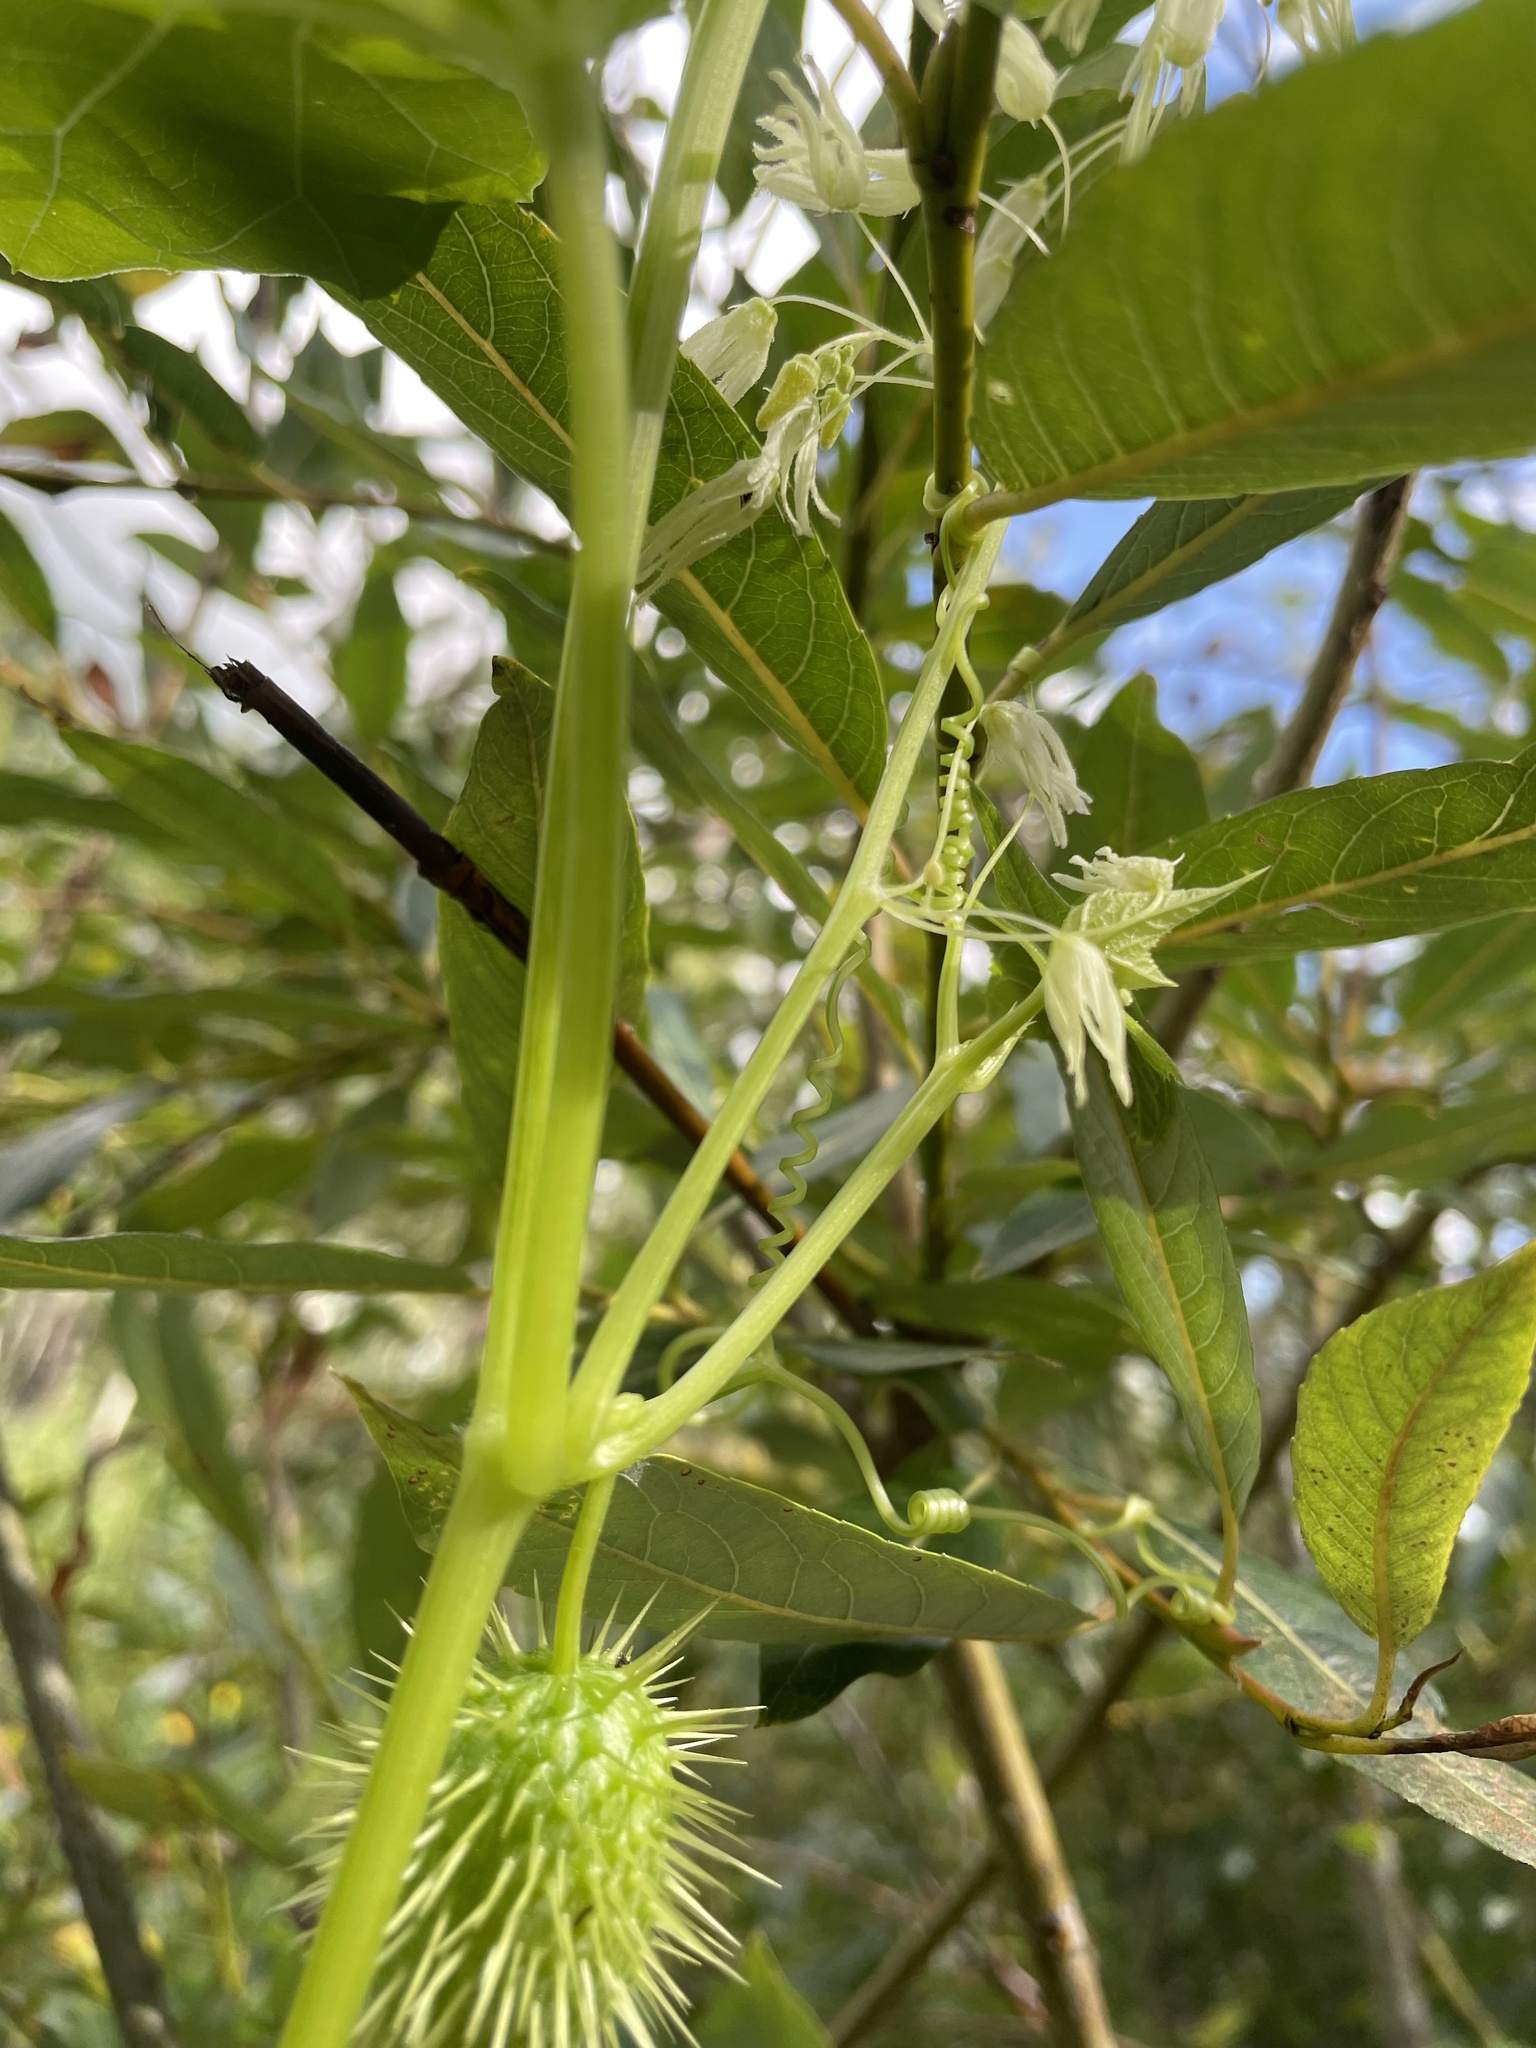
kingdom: Plantae
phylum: Tracheophyta
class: Magnoliopsida
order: Cucurbitales
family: Cucurbitaceae
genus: Echinocystis
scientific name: Echinocystis lobata
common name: Wild cucumber
